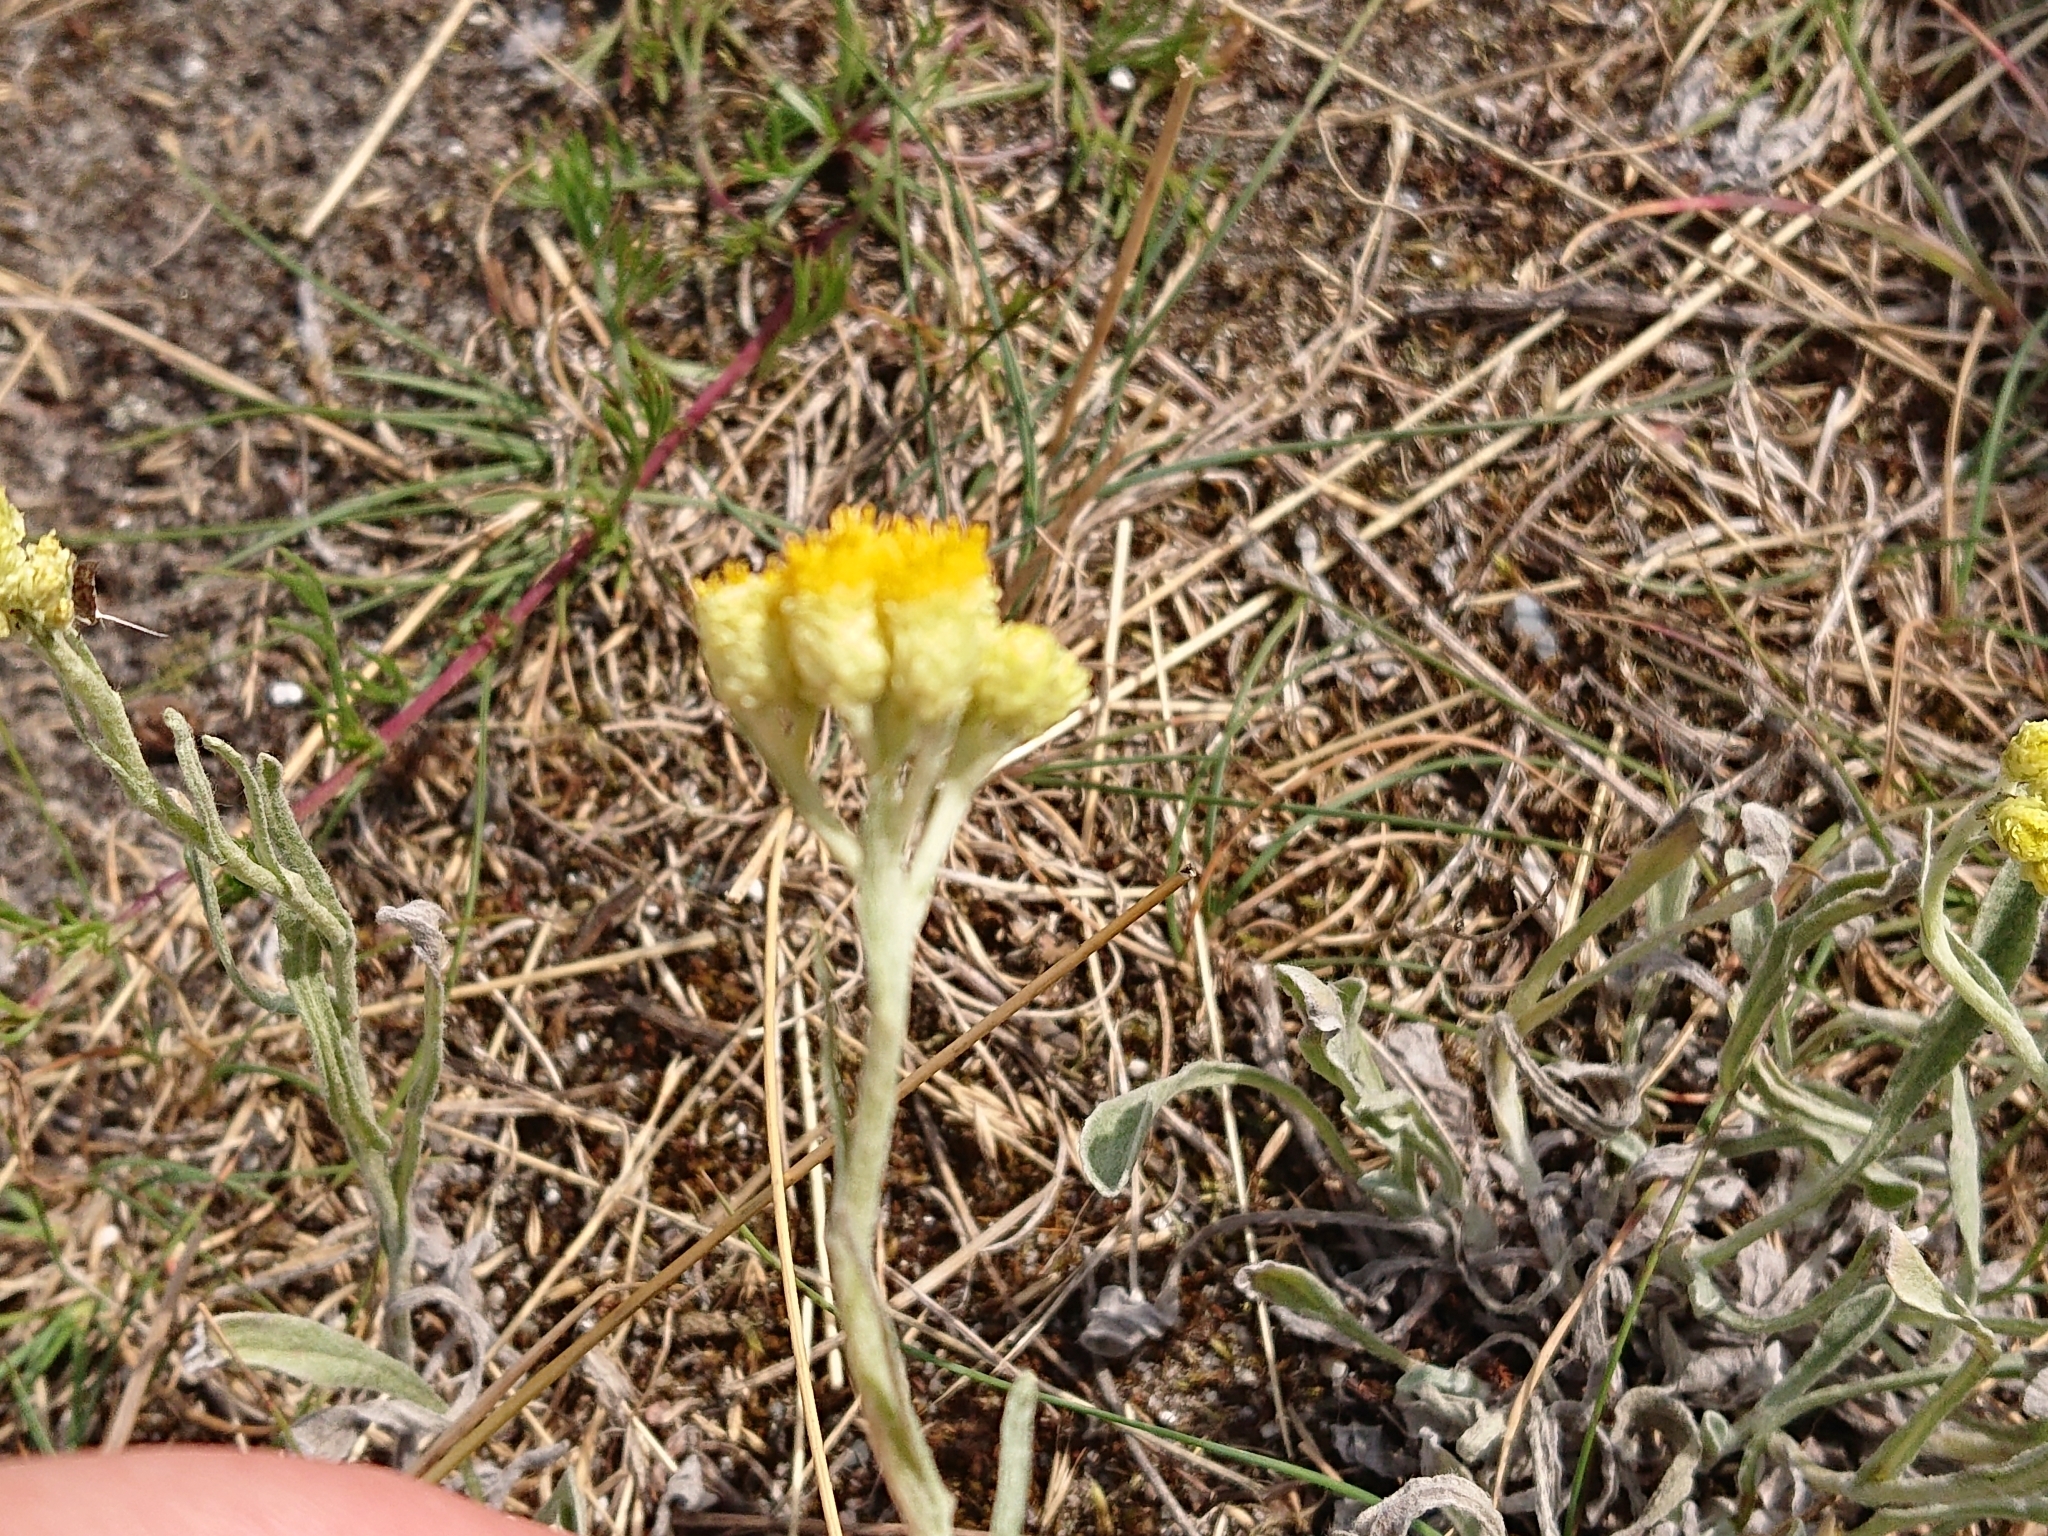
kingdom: Plantae
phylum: Tracheophyta
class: Magnoliopsida
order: Asterales
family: Asteraceae
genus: Helichrysum
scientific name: Helichrysum arenarium
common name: Strawflower
